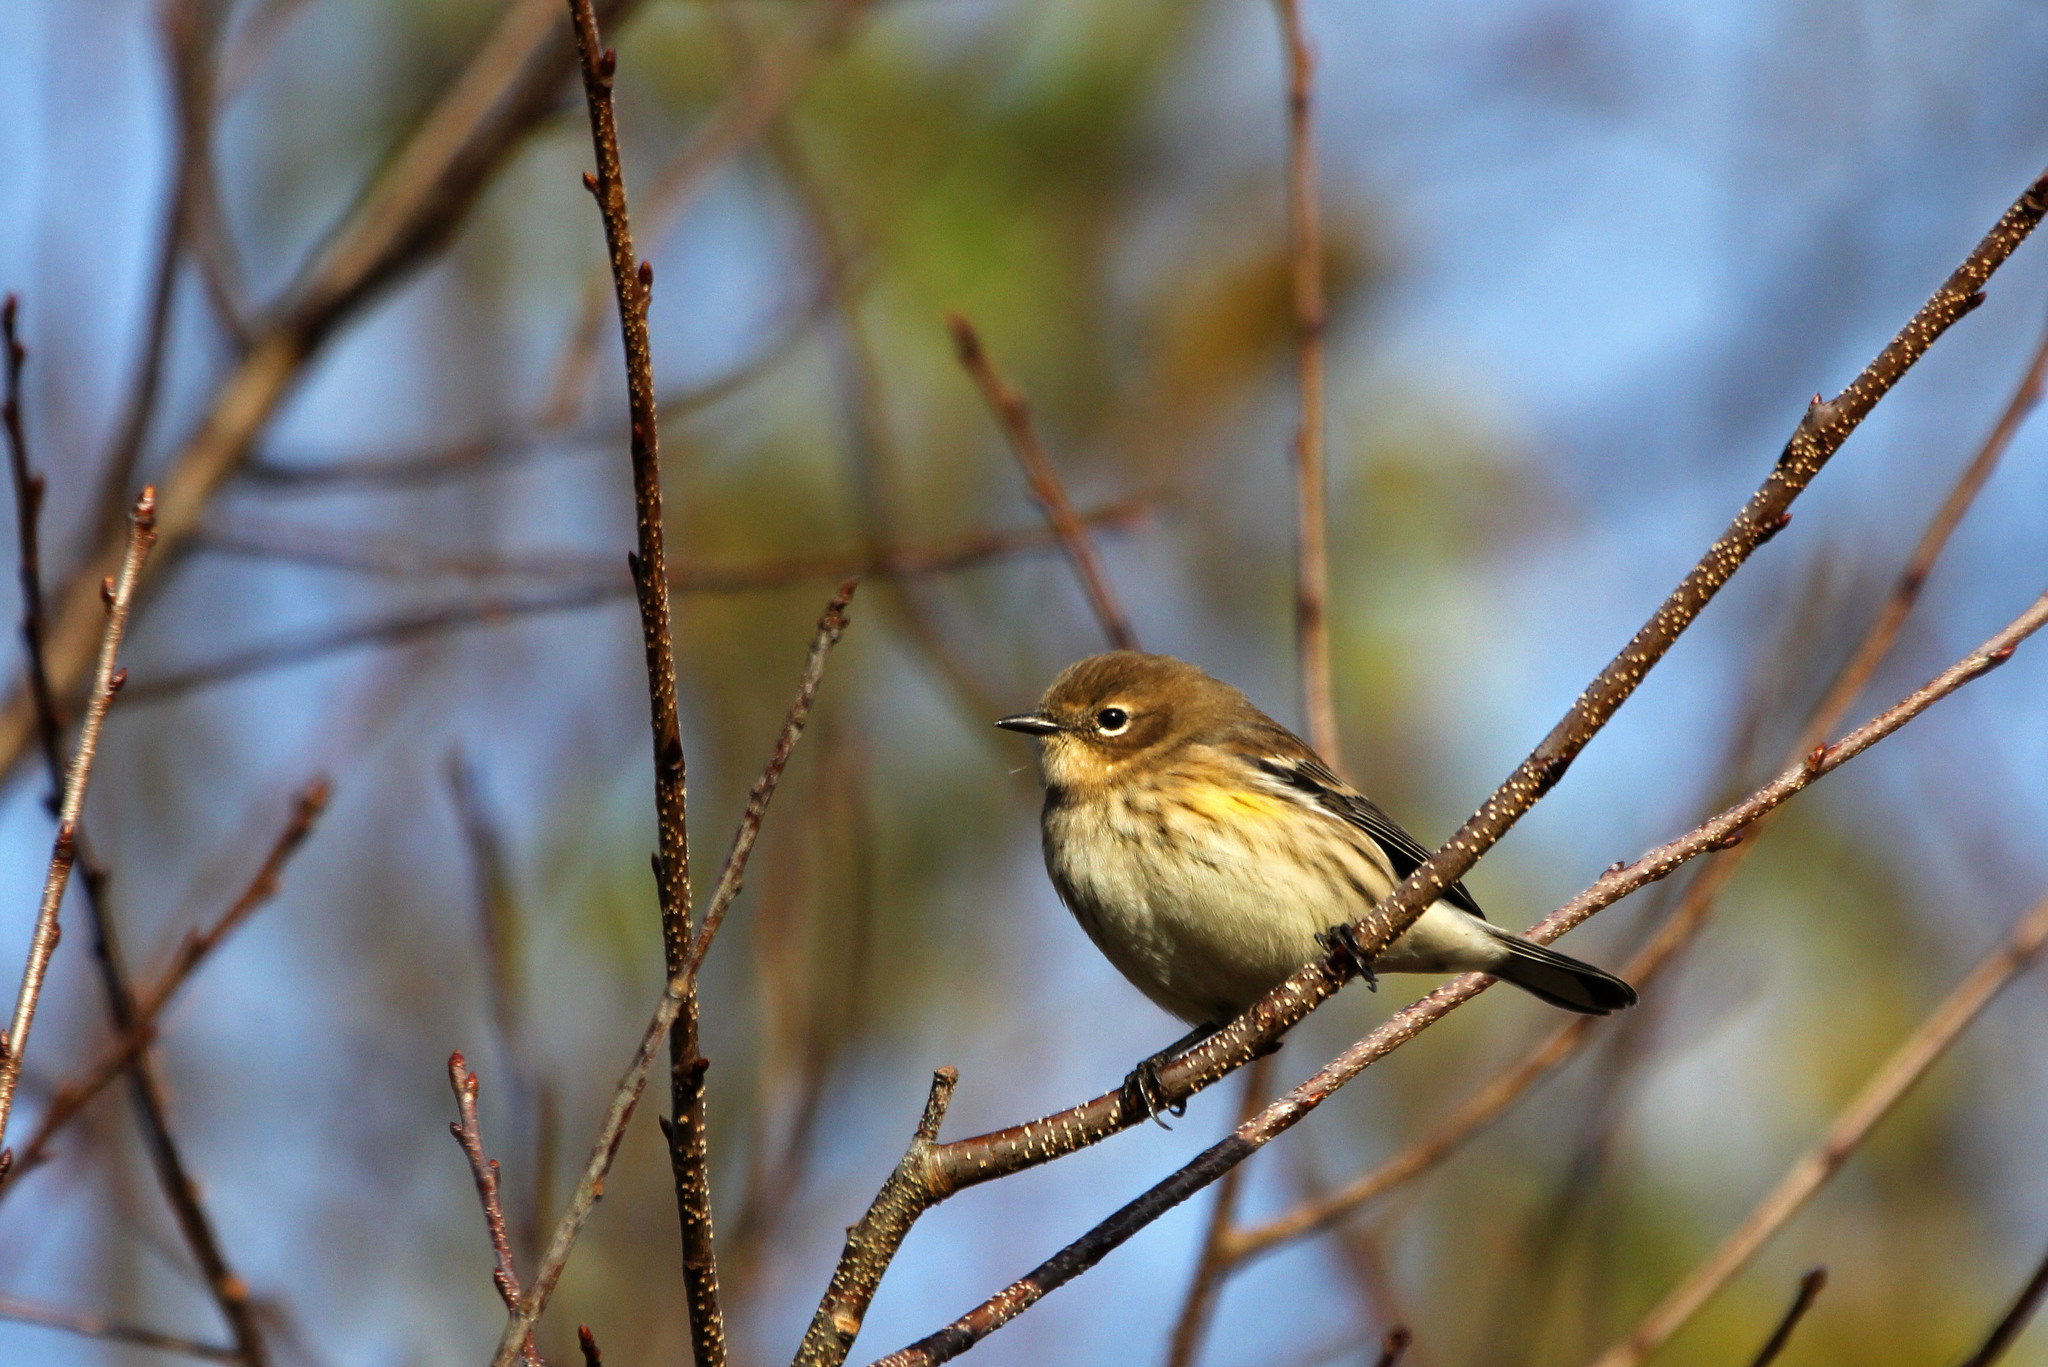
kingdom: Animalia
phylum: Chordata
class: Aves
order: Passeriformes
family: Parulidae
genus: Setophaga
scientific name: Setophaga coronata
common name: Myrtle warbler
